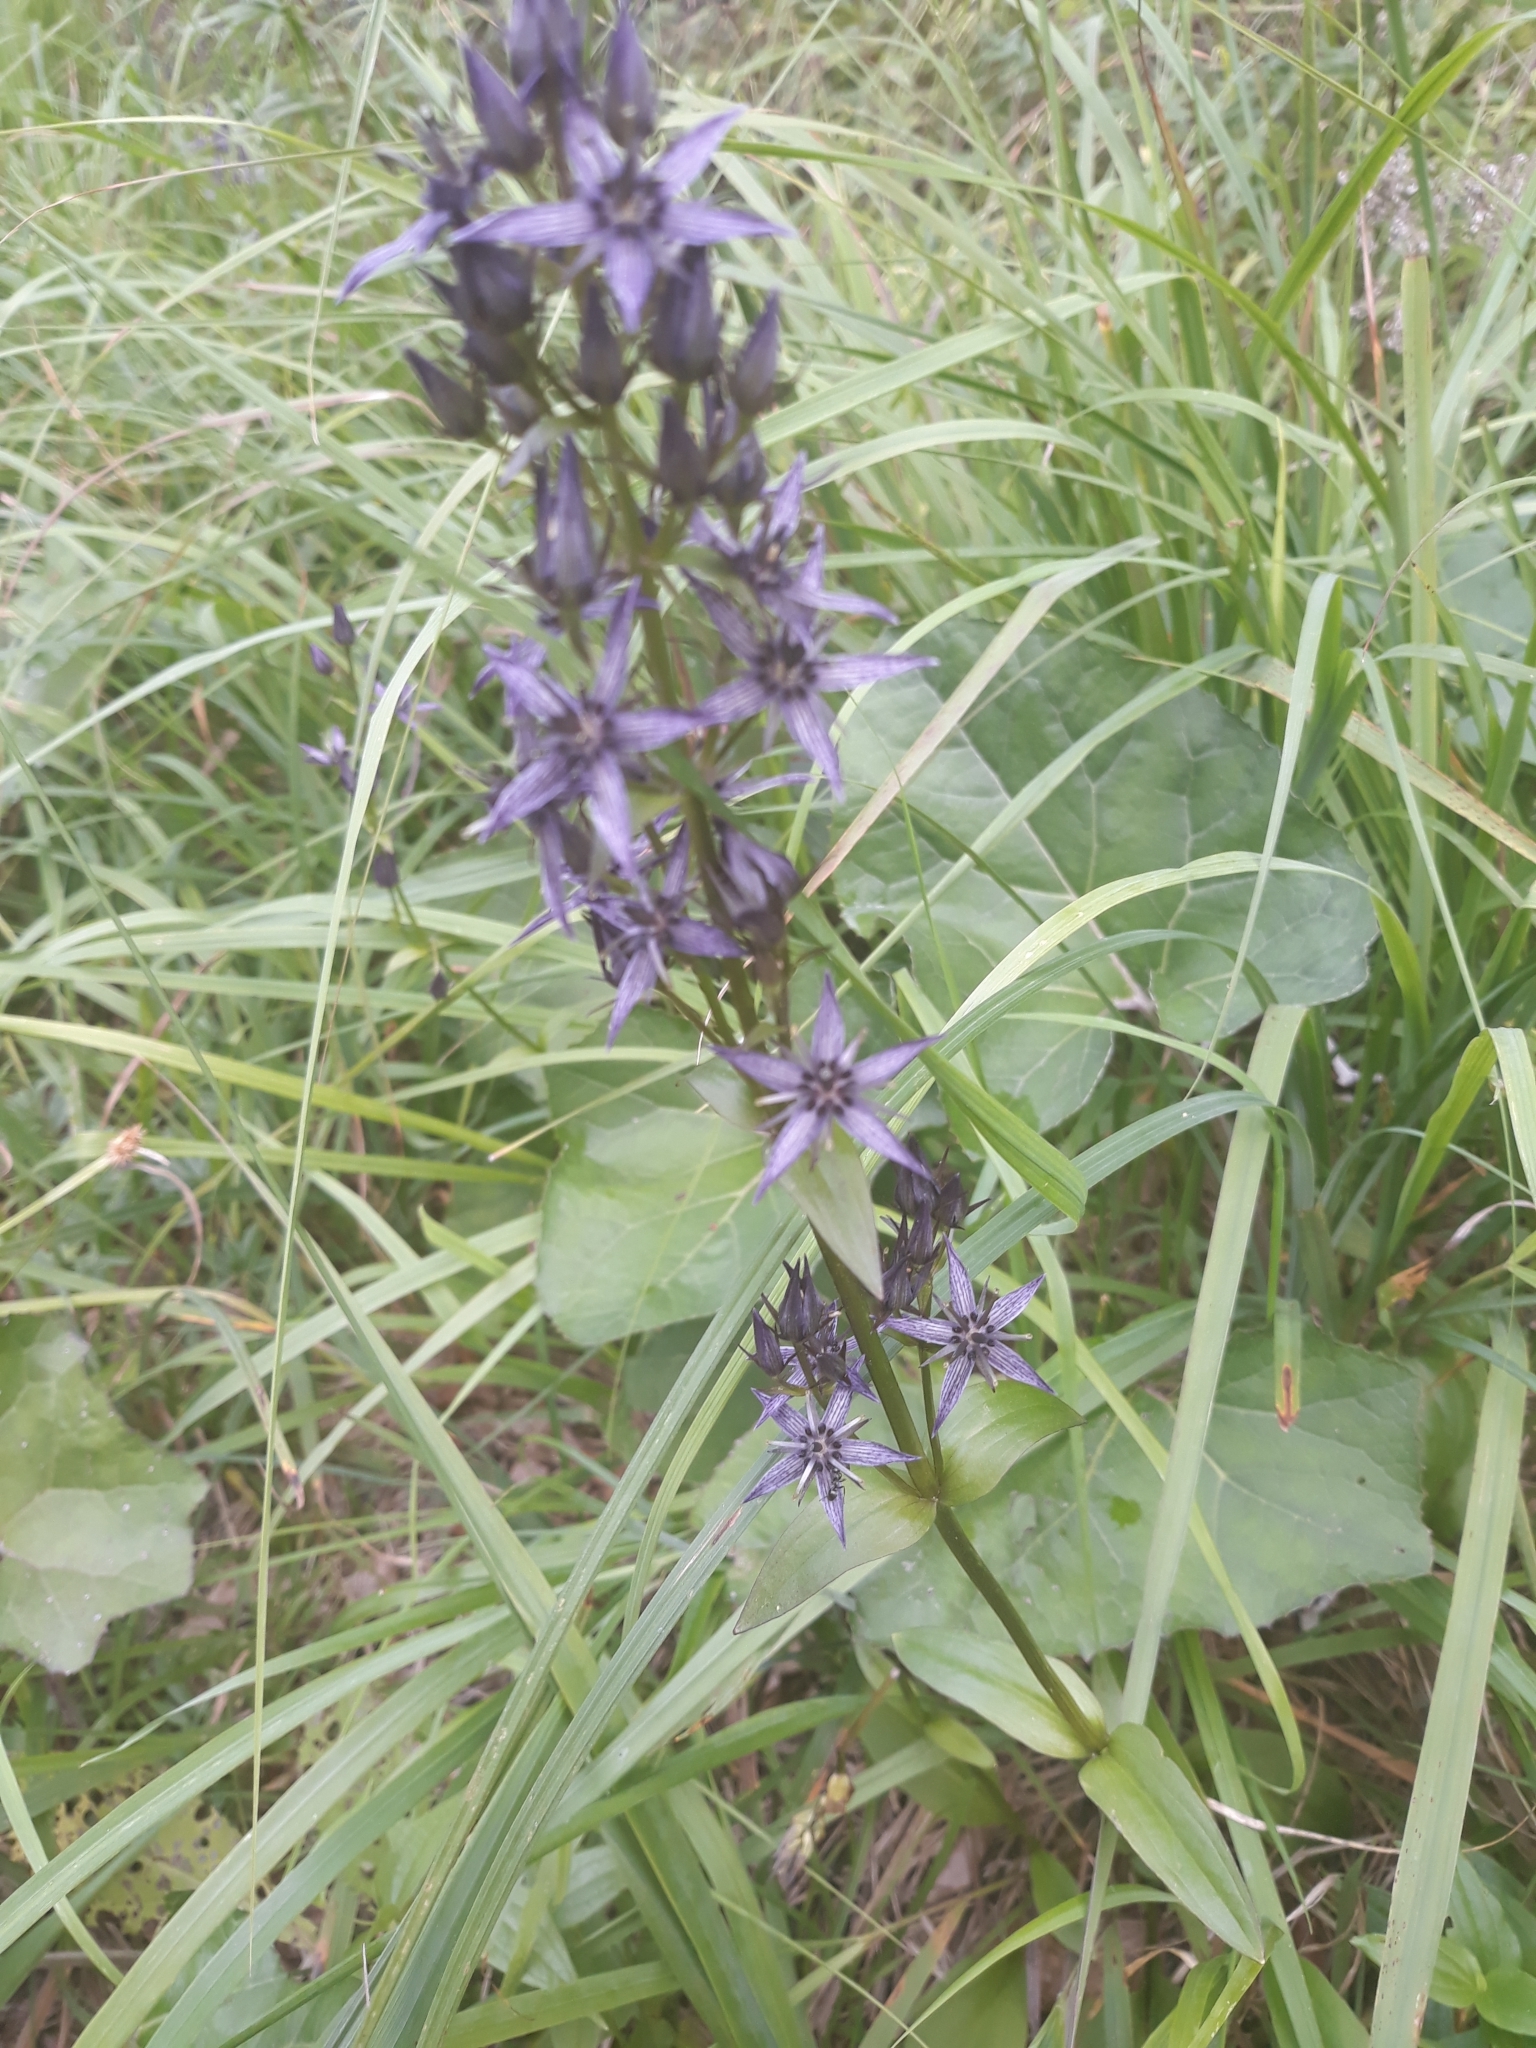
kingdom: Plantae
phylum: Tracheophyta
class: Magnoliopsida
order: Gentianales
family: Gentianaceae
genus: Swertia
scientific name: Swertia perennis
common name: Alpine bog swertia
